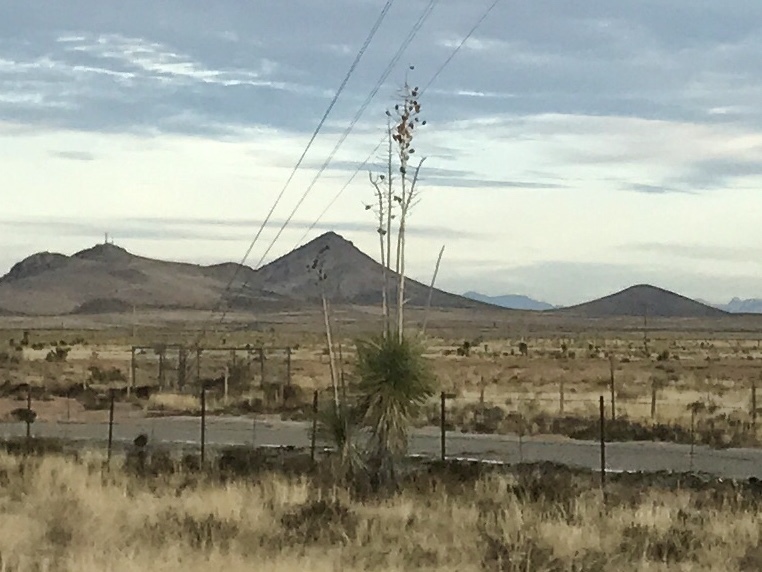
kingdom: Plantae
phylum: Tracheophyta
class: Liliopsida
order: Asparagales
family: Asparagaceae
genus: Yucca
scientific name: Yucca elata
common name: Palmella
